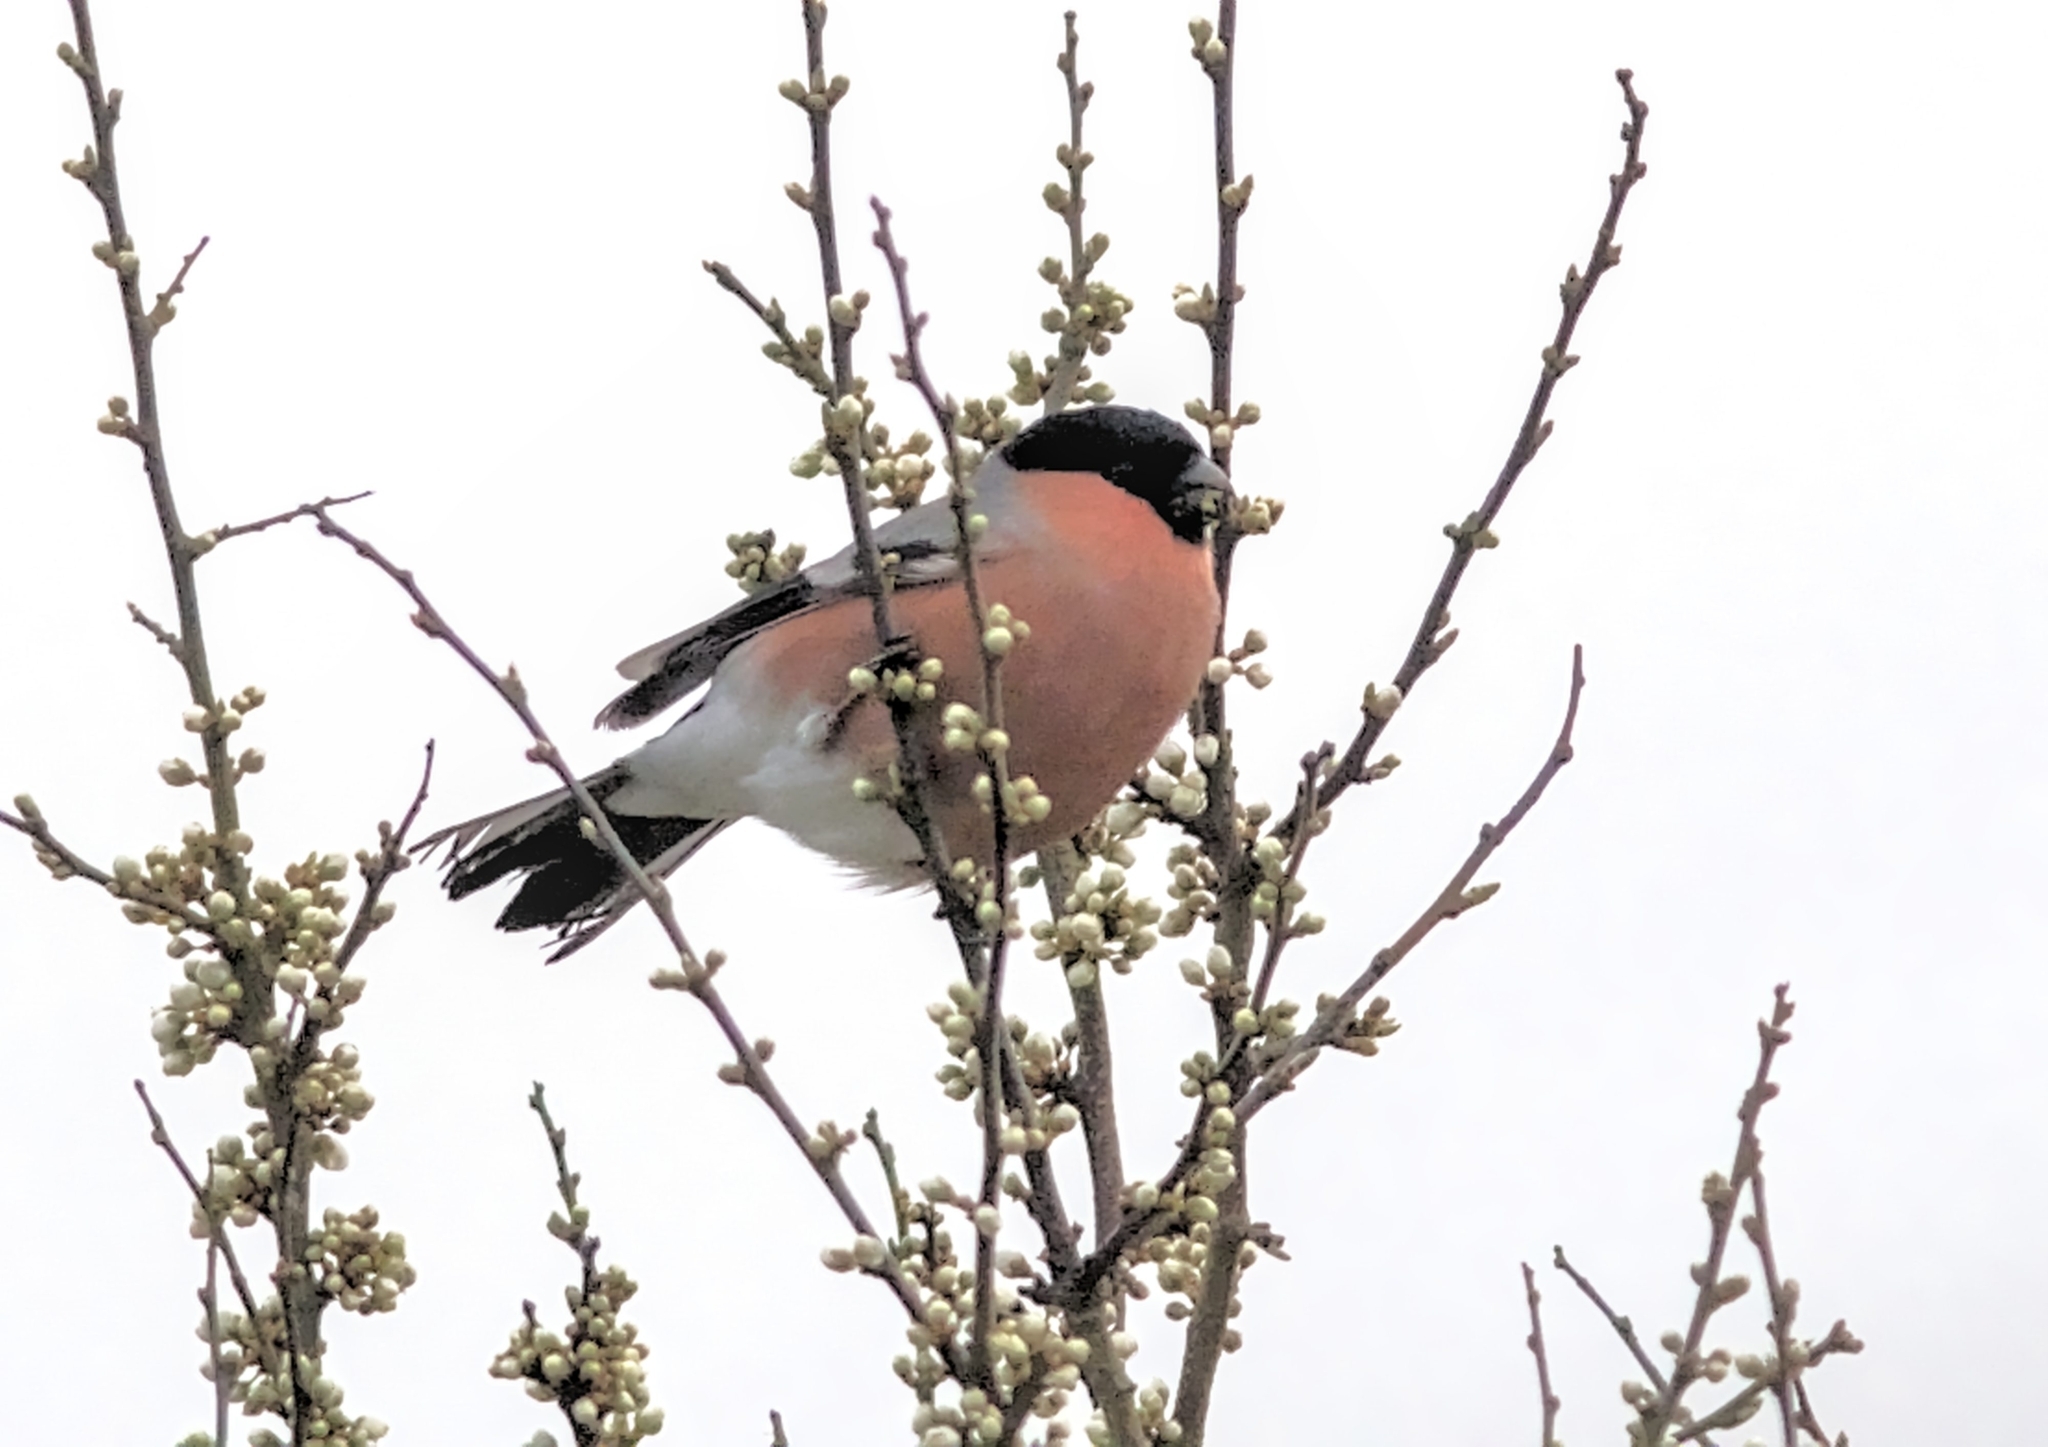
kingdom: Animalia
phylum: Chordata
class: Aves
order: Passeriformes
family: Fringillidae
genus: Pyrrhula
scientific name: Pyrrhula pyrrhula
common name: Eurasian bullfinch
